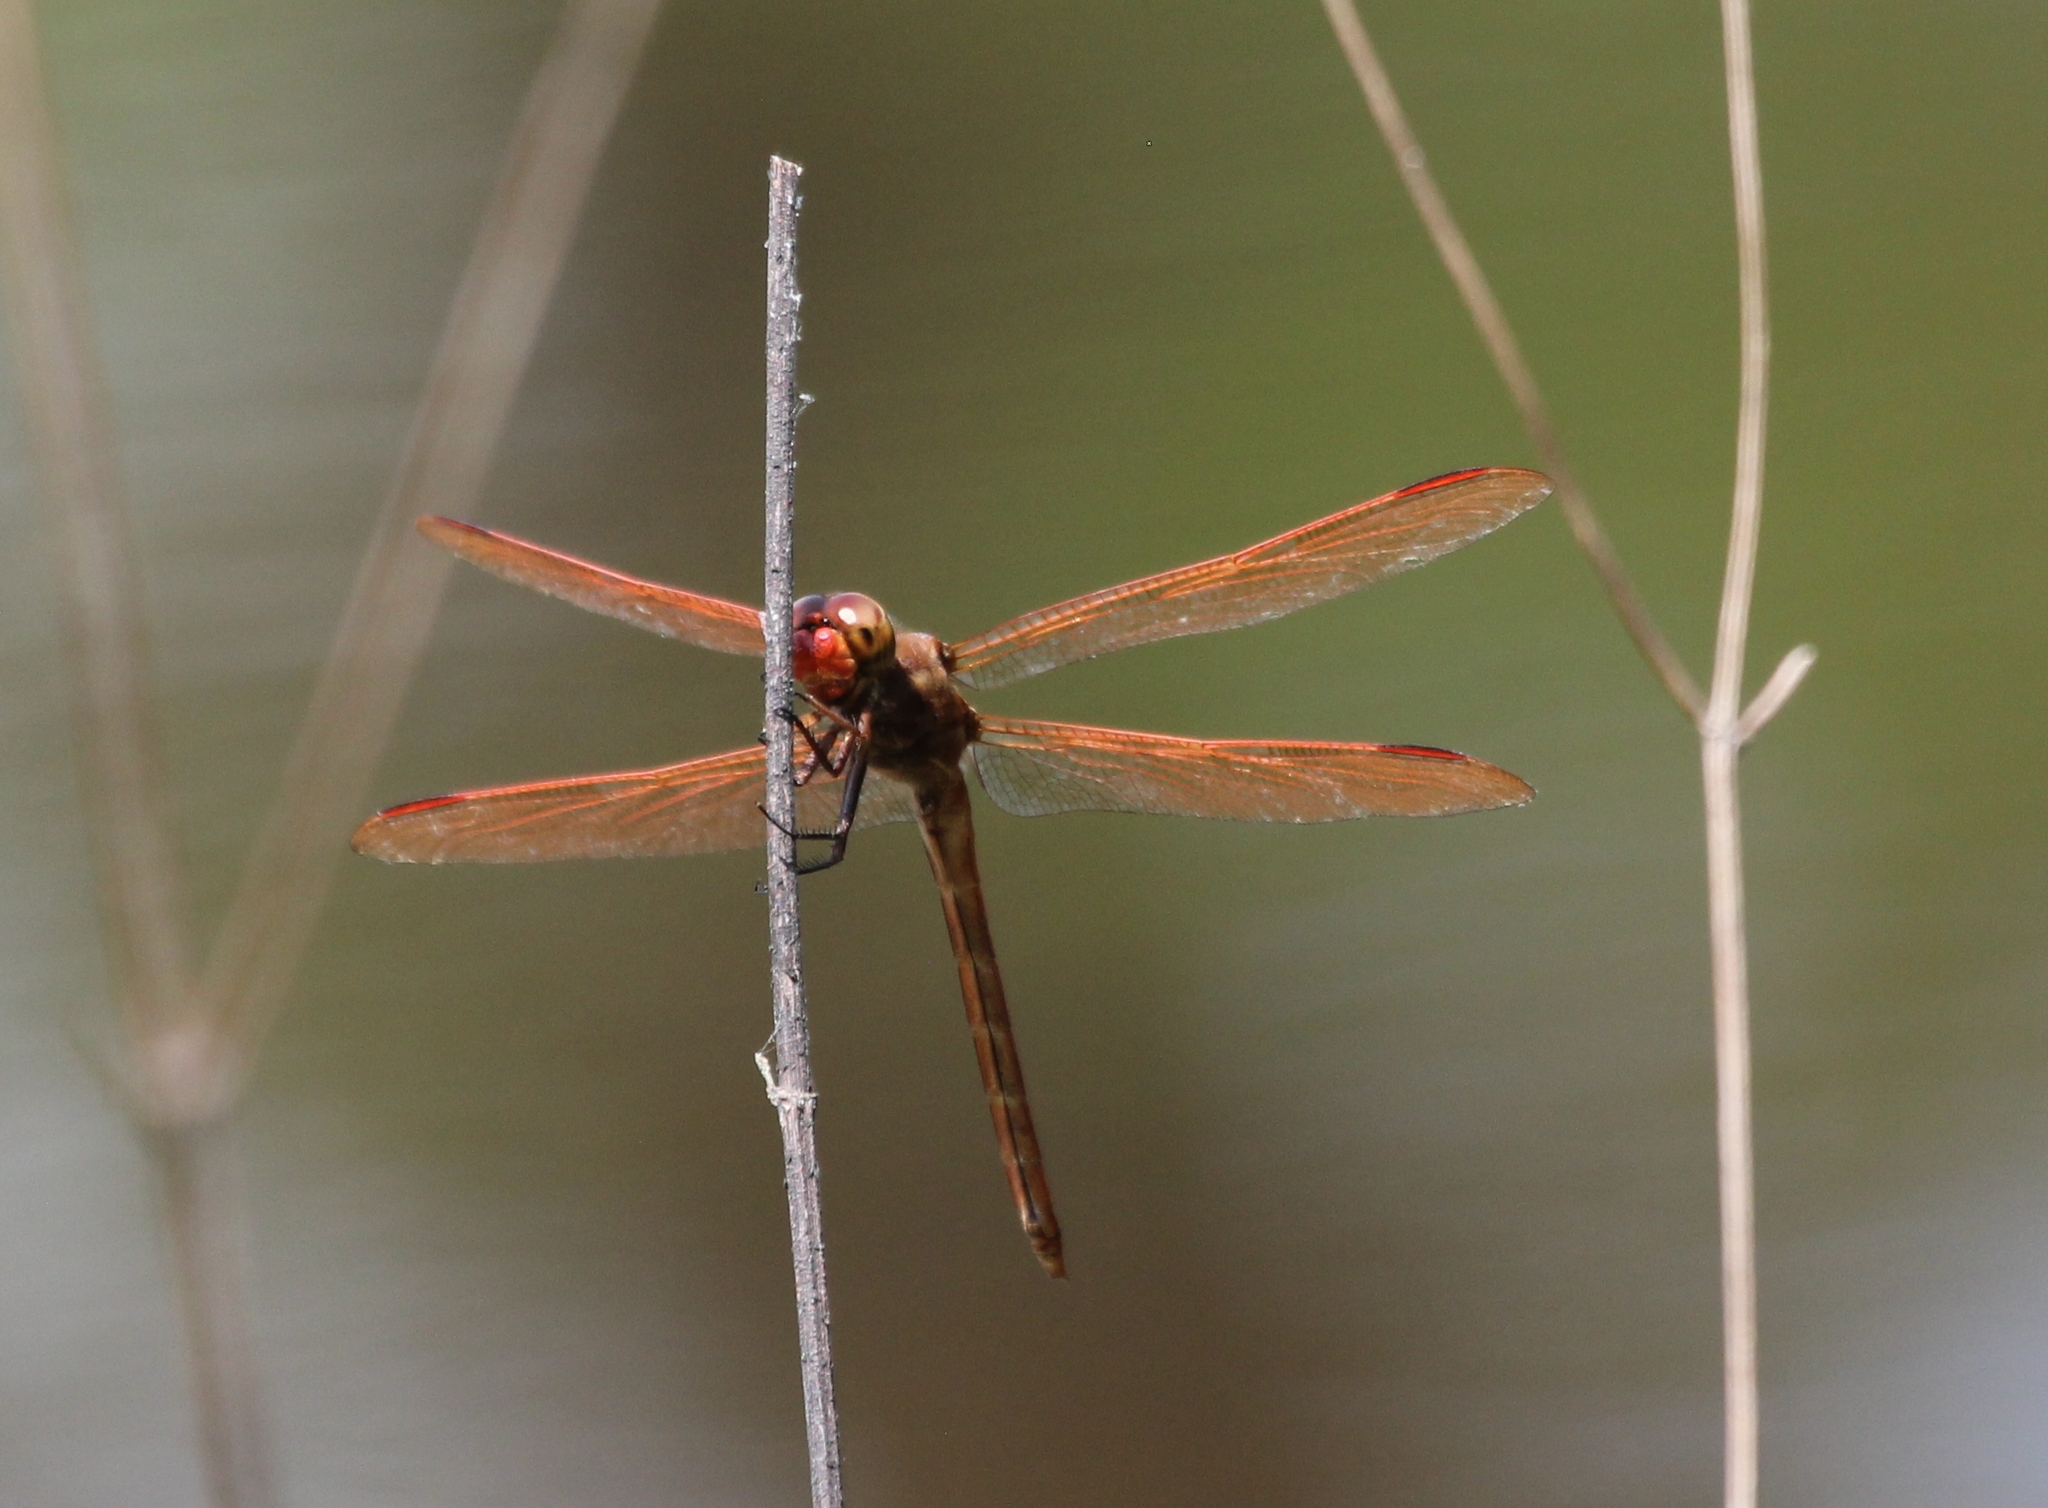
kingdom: Animalia
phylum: Arthropoda
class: Insecta
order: Odonata
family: Libellulidae
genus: Libellula
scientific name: Libellula auripennis
